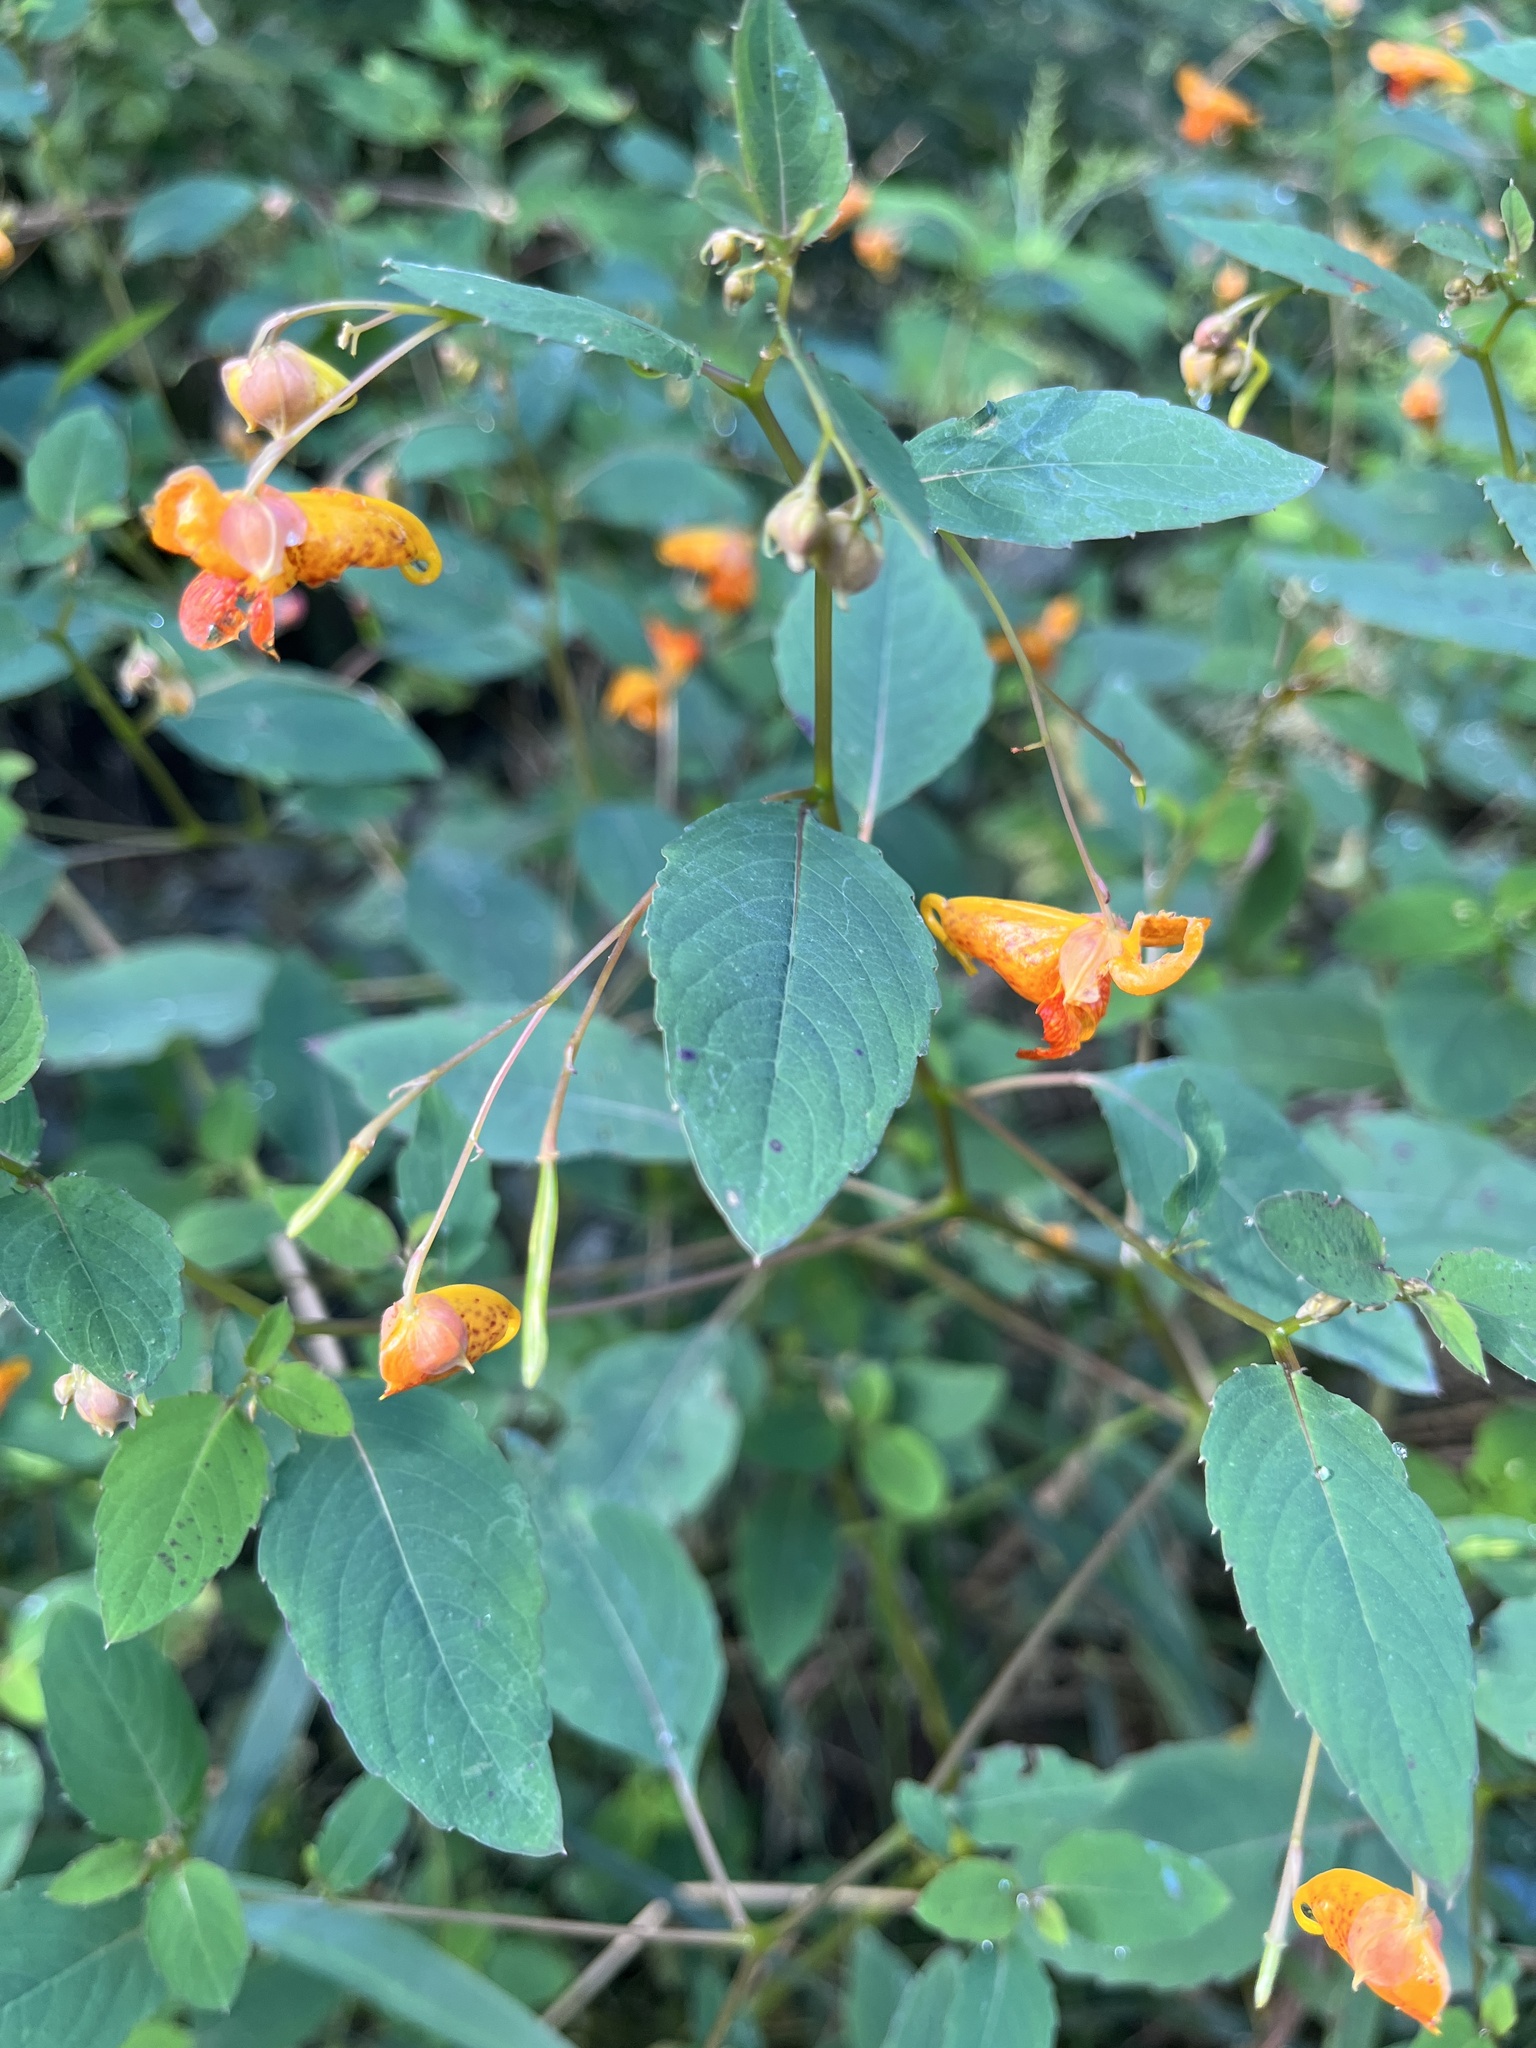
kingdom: Plantae
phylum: Tracheophyta
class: Magnoliopsida
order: Ericales
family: Balsaminaceae
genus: Impatiens
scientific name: Impatiens capensis
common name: Orange balsam
